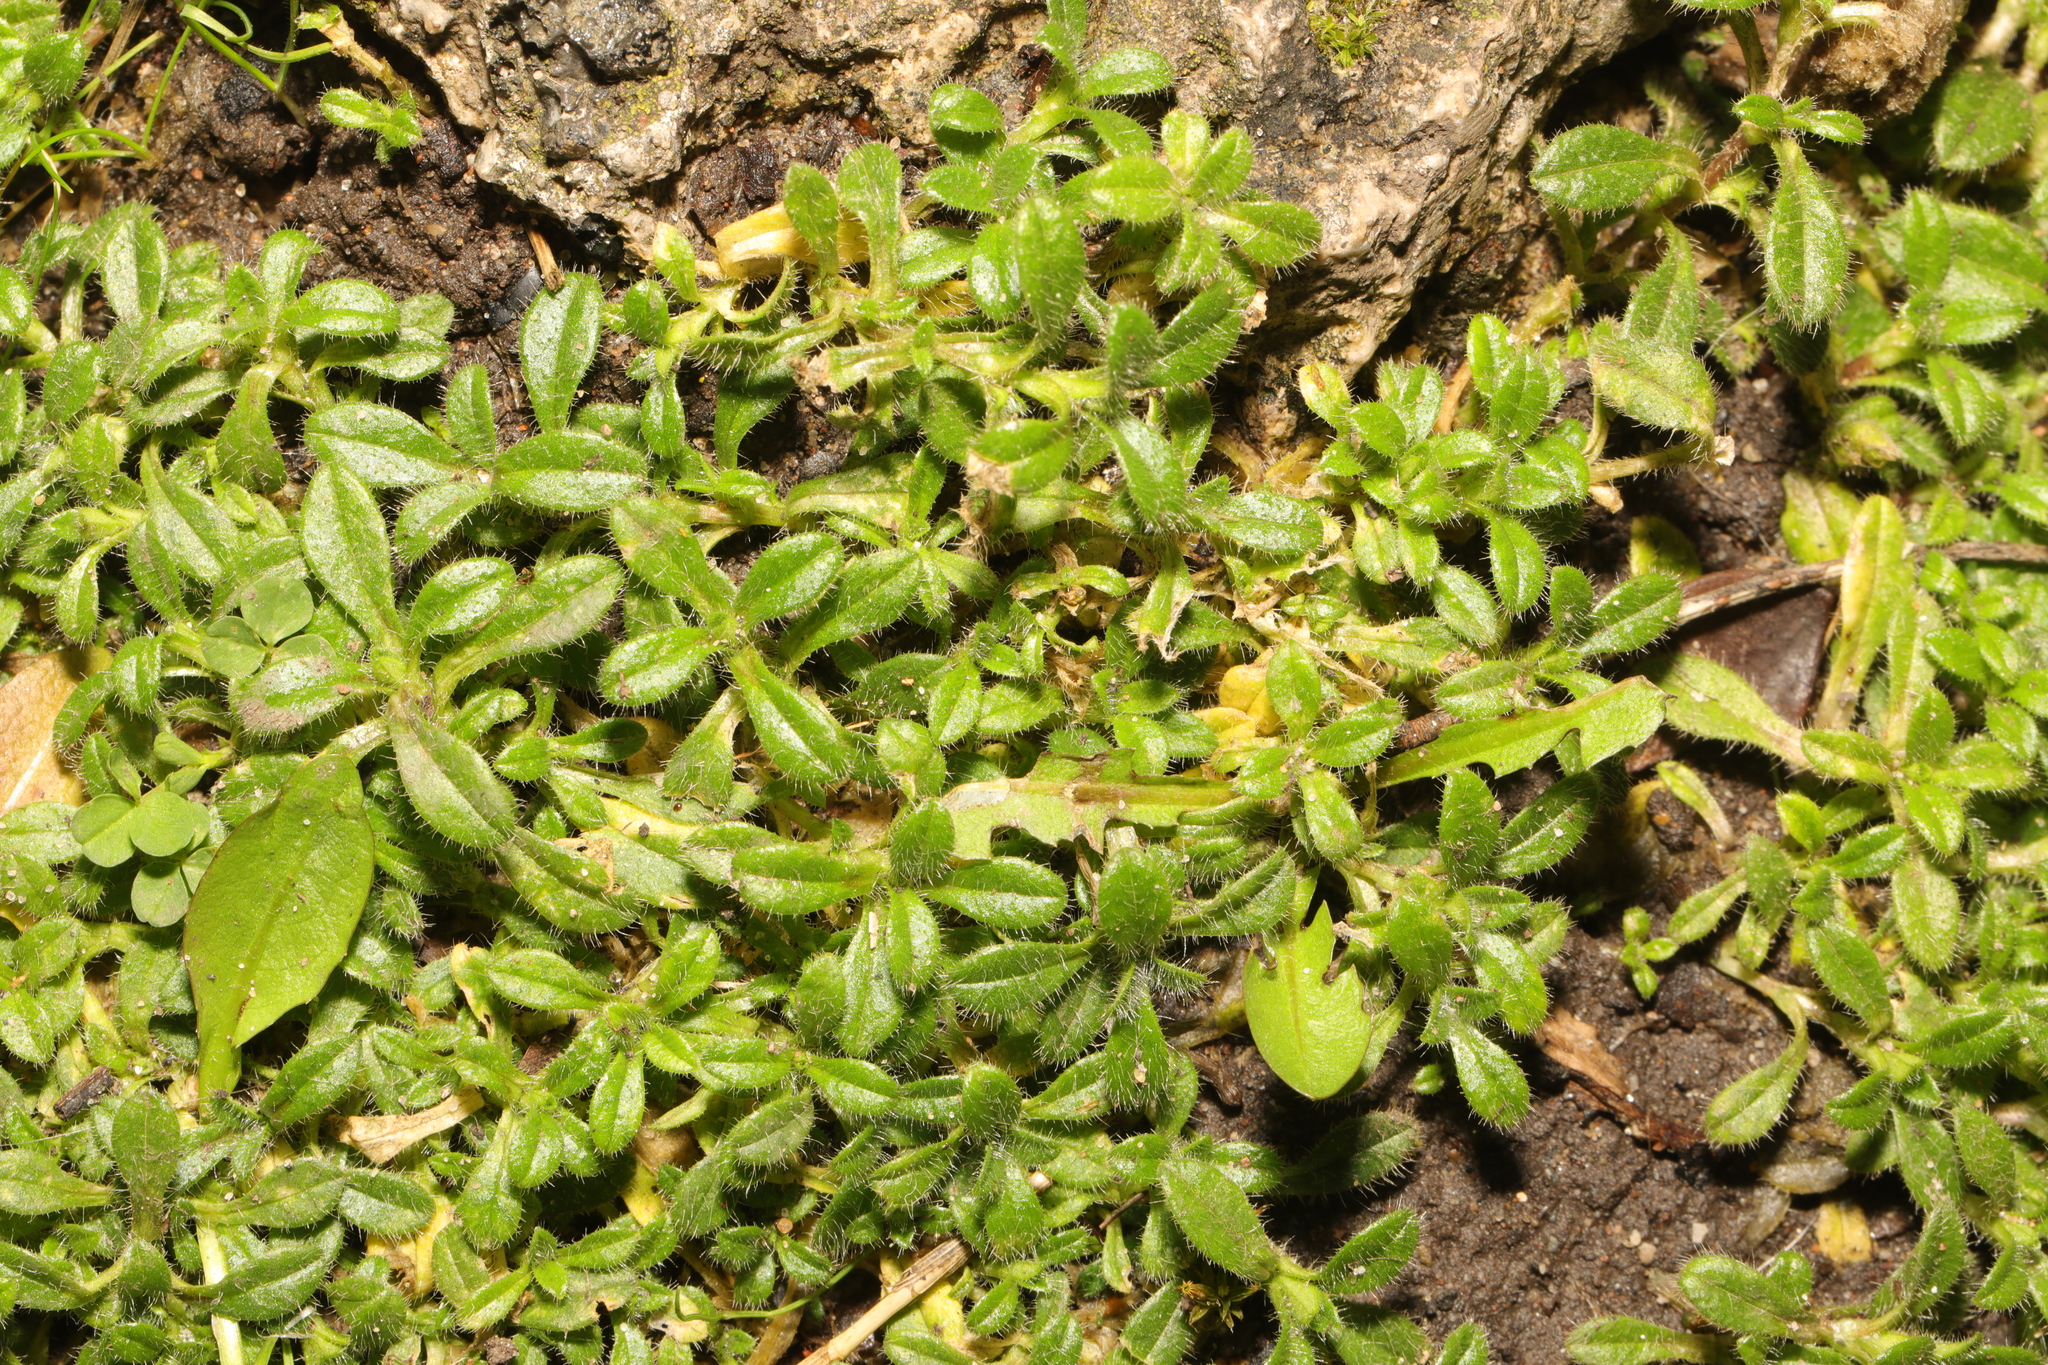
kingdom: Plantae
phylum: Tracheophyta
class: Magnoliopsida
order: Caryophyllales
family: Caryophyllaceae
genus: Cerastium
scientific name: Cerastium fontanum
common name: Common mouse-ear
